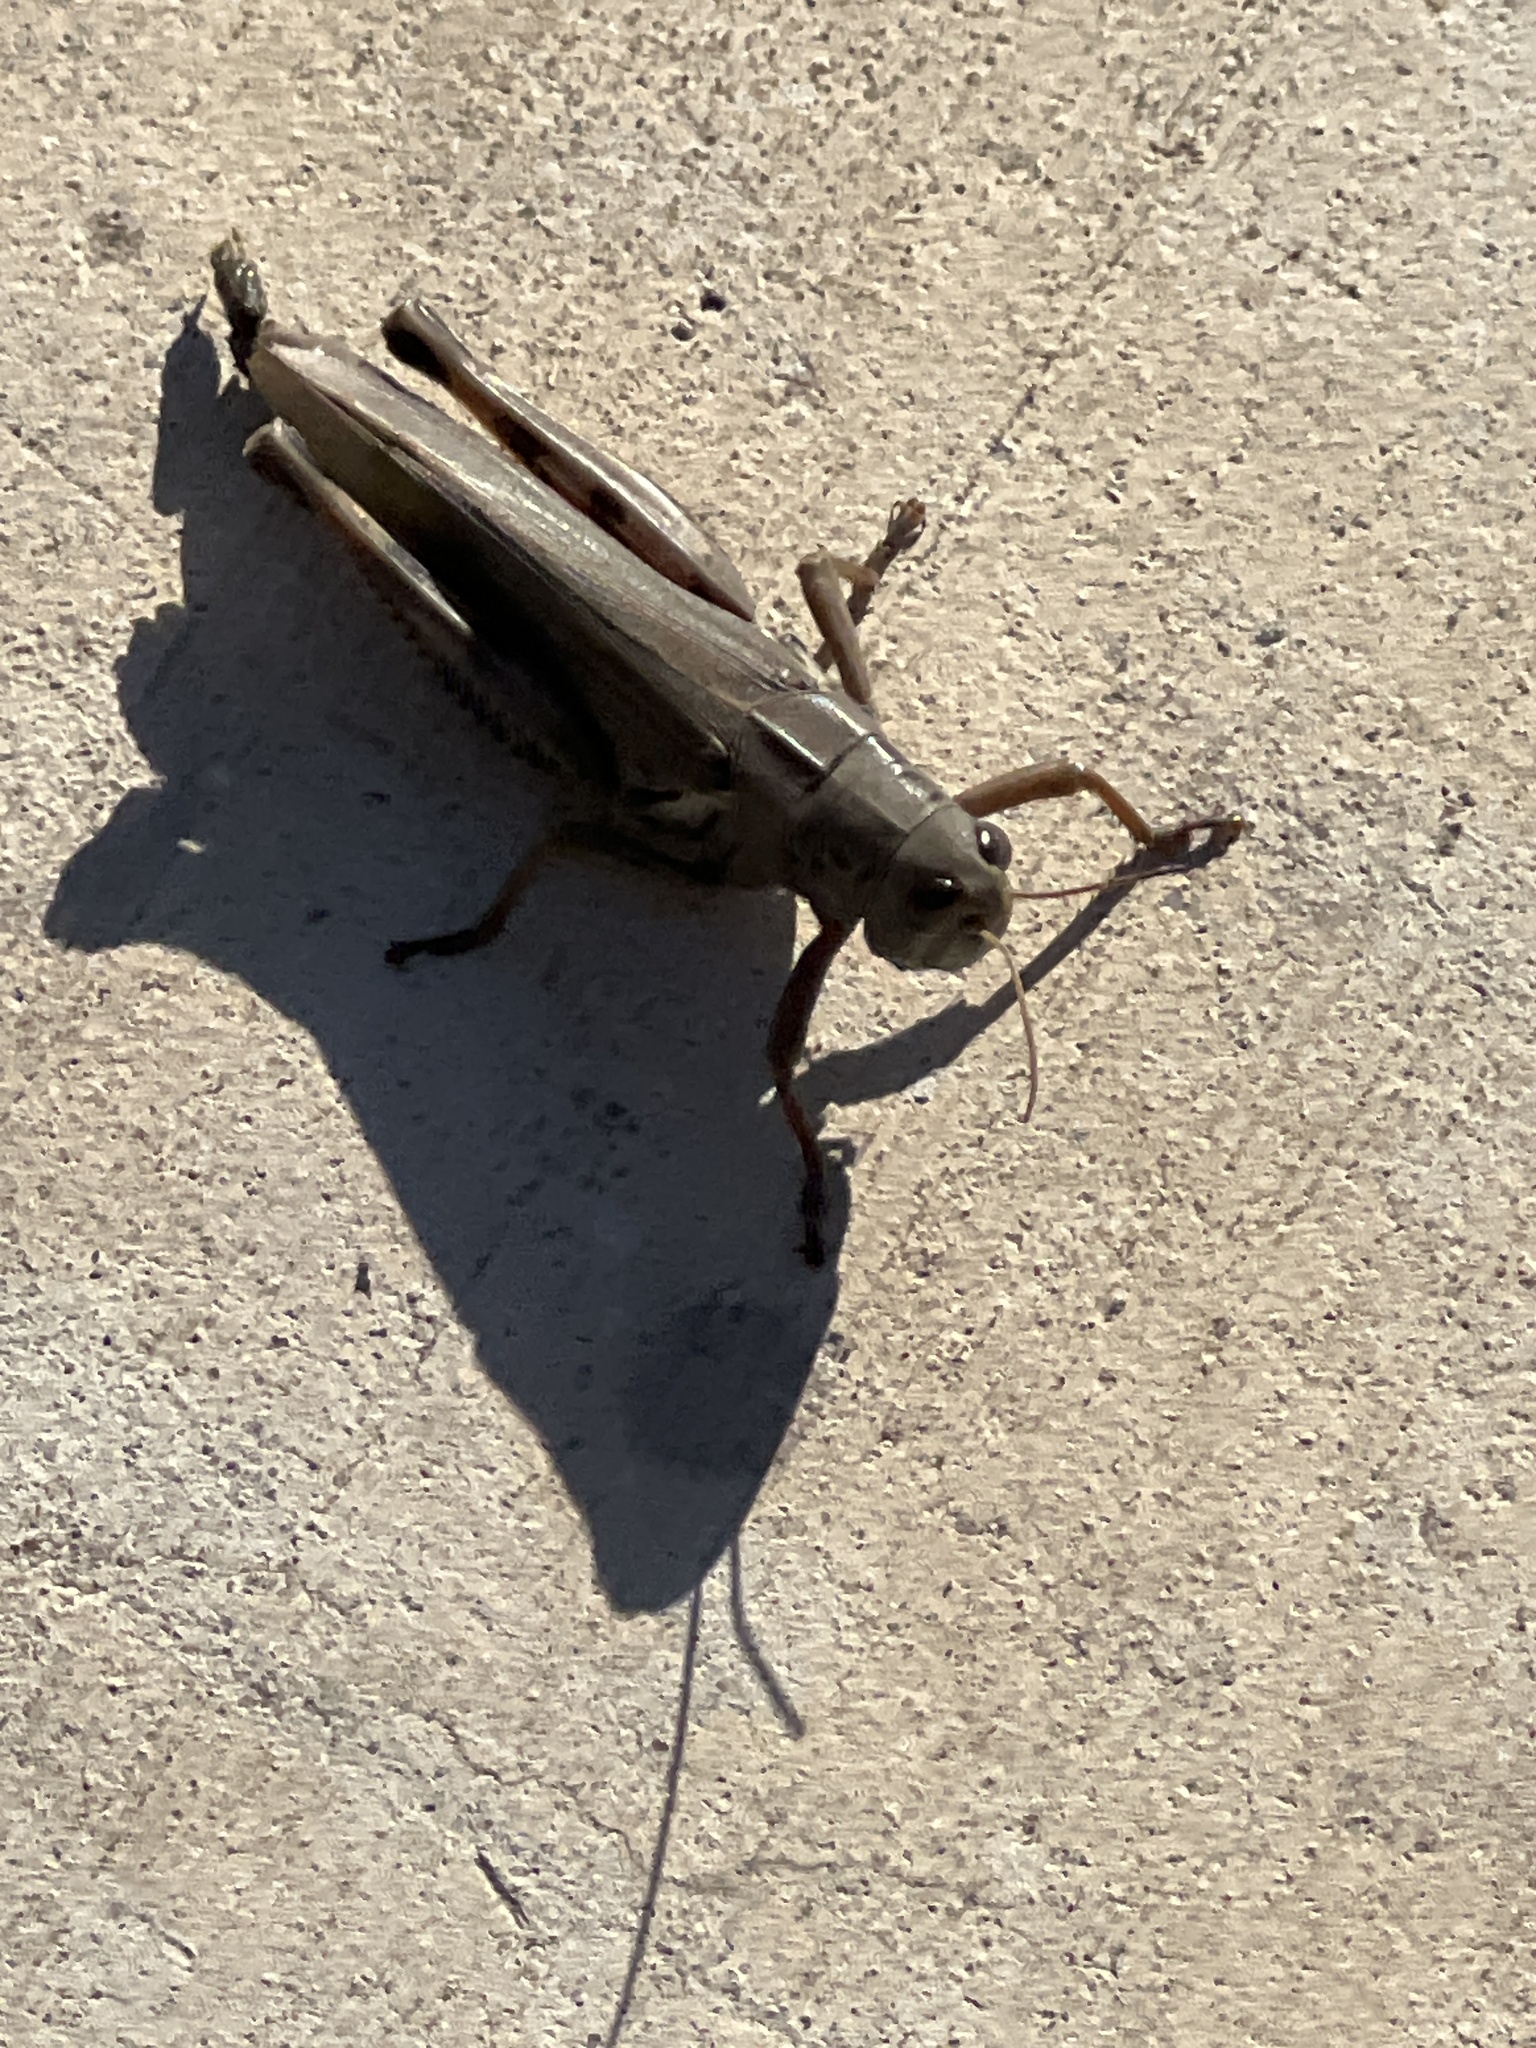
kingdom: Animalia
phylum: Arthropoda
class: Insecta
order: Orthoptera
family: Acrididae
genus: Melanoplus
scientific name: Melanoplus differentialis
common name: Differential grasshopper
